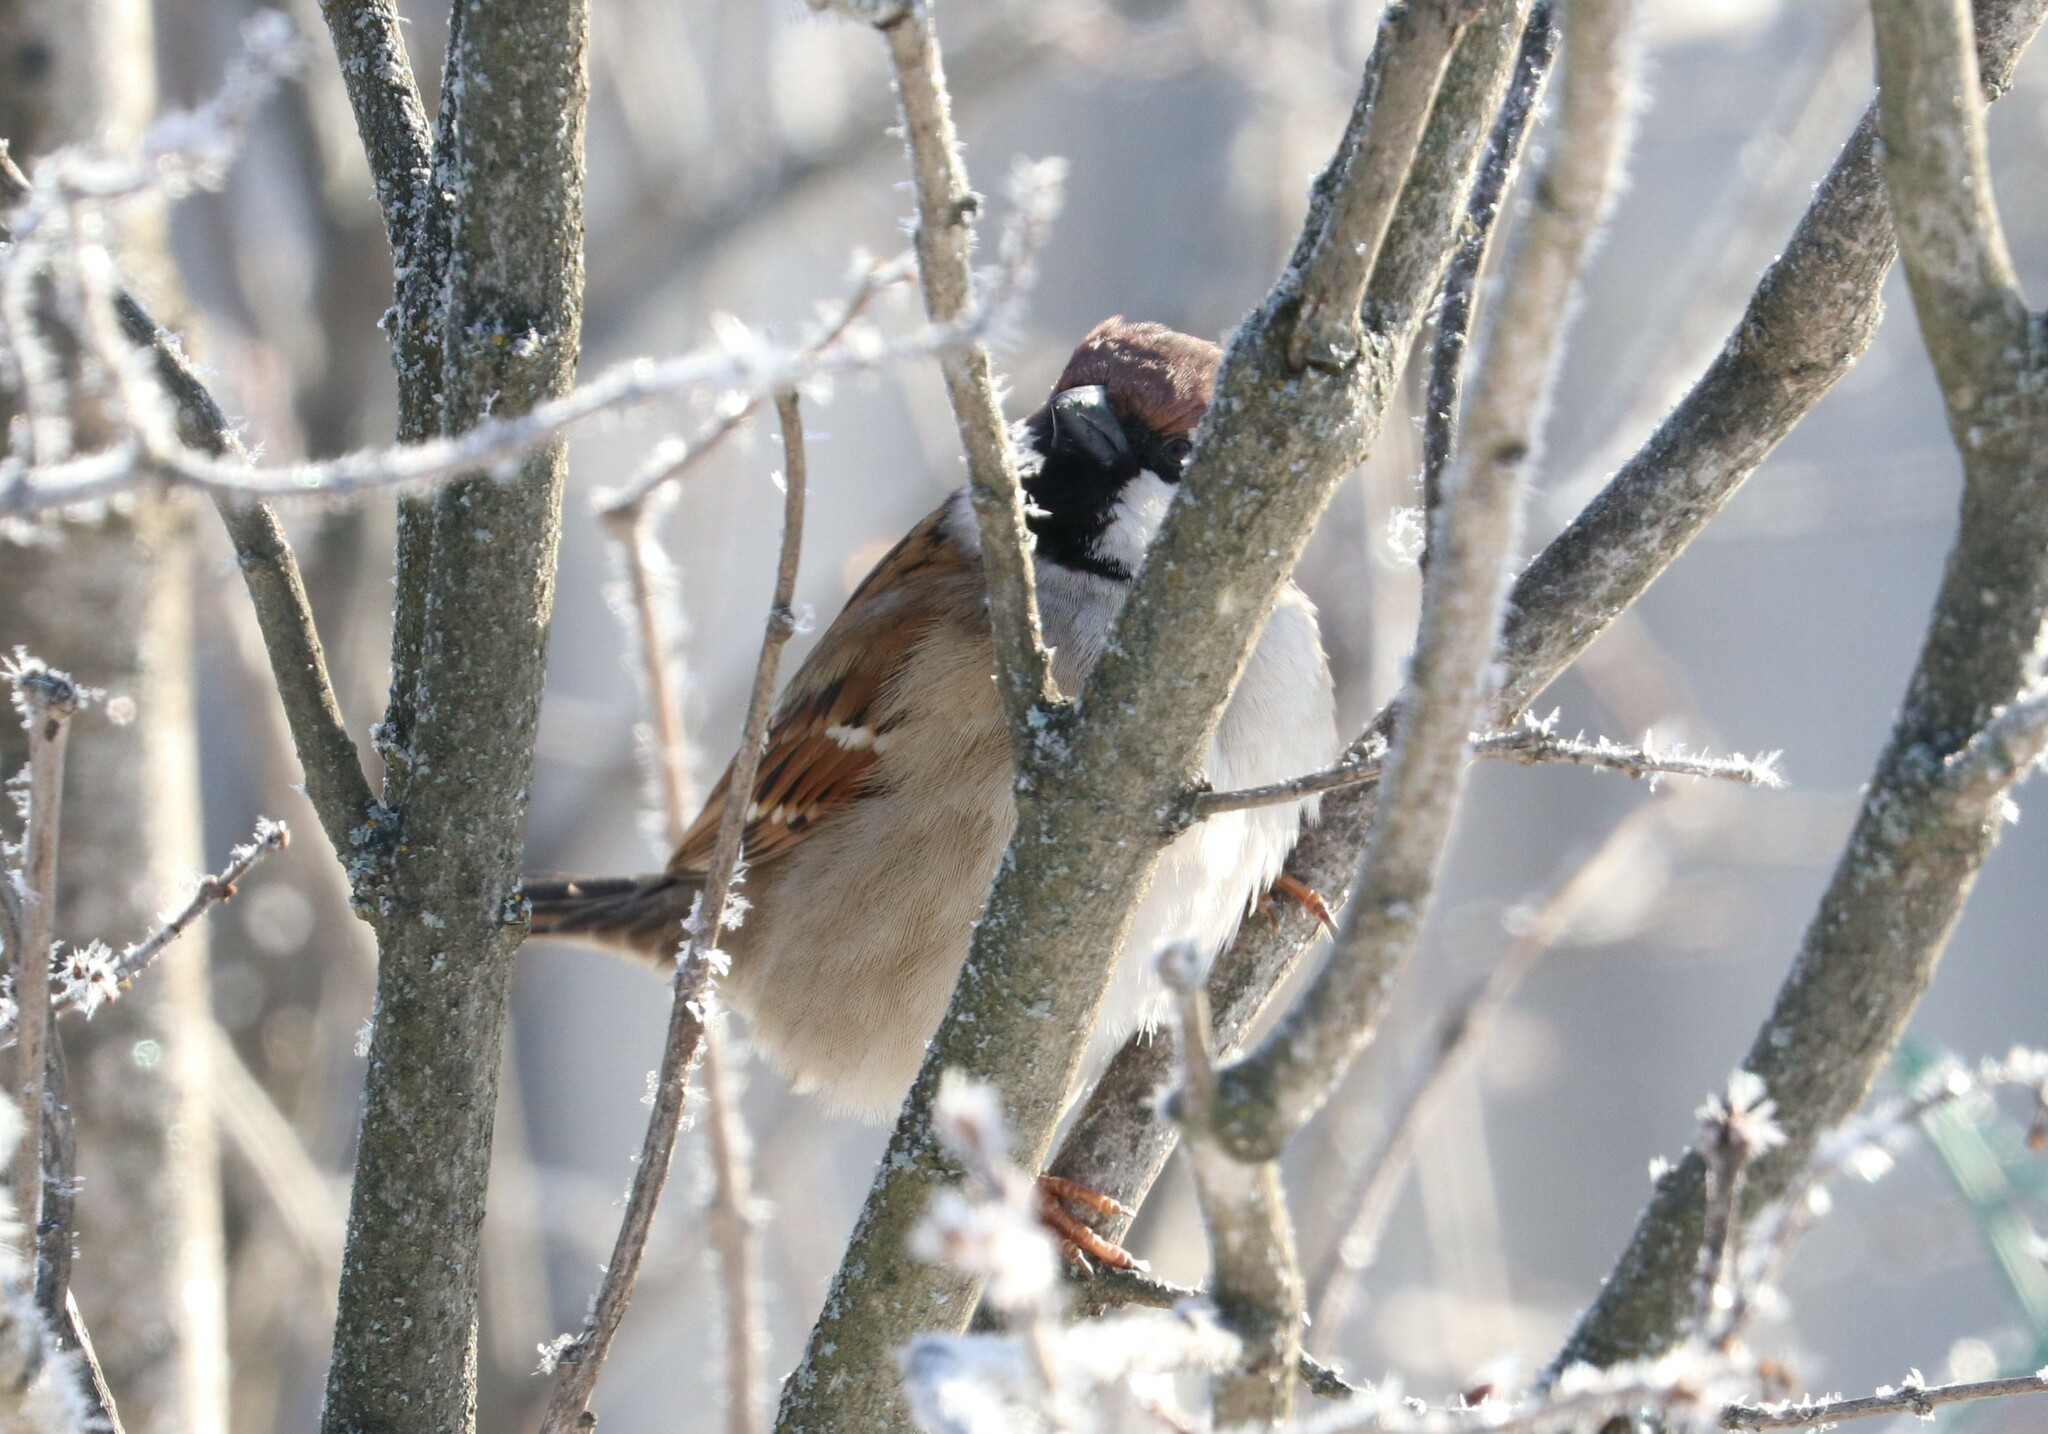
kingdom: Animalia
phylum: Chordata
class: Aves
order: Passeriformes
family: Passeridae
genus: Passer
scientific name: Passer montanus
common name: Eurasian tree sparrow
